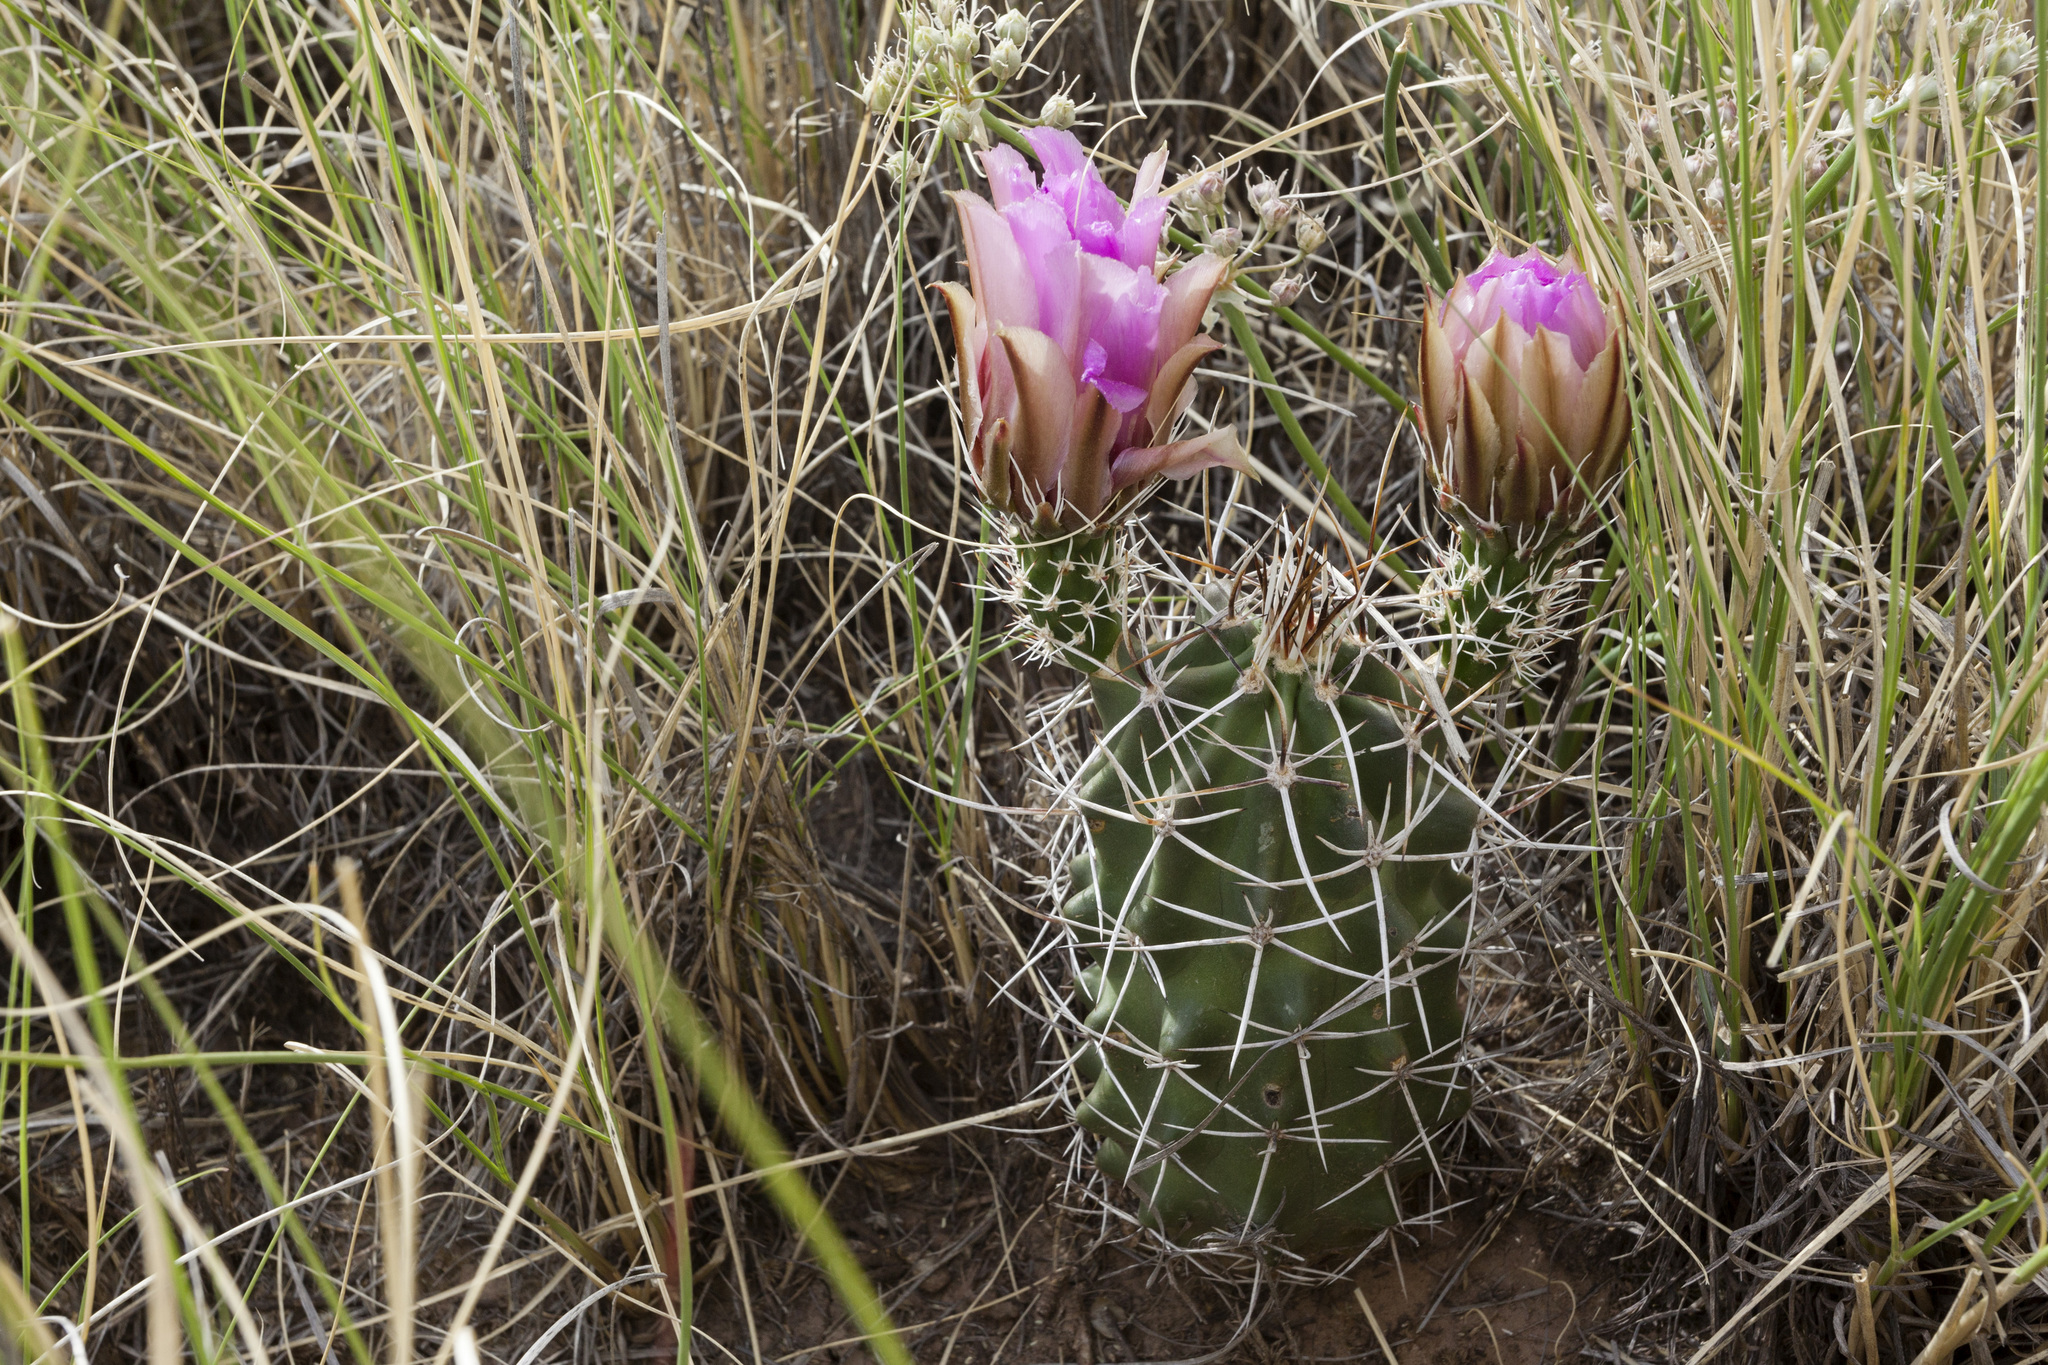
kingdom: Plantae
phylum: Tracheophyta
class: Magnoliopsida
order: Caryophyllales
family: Cactaceae
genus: Echinocereus
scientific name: Echinocereus fendleri
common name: Fendler's hedgehog cactus
